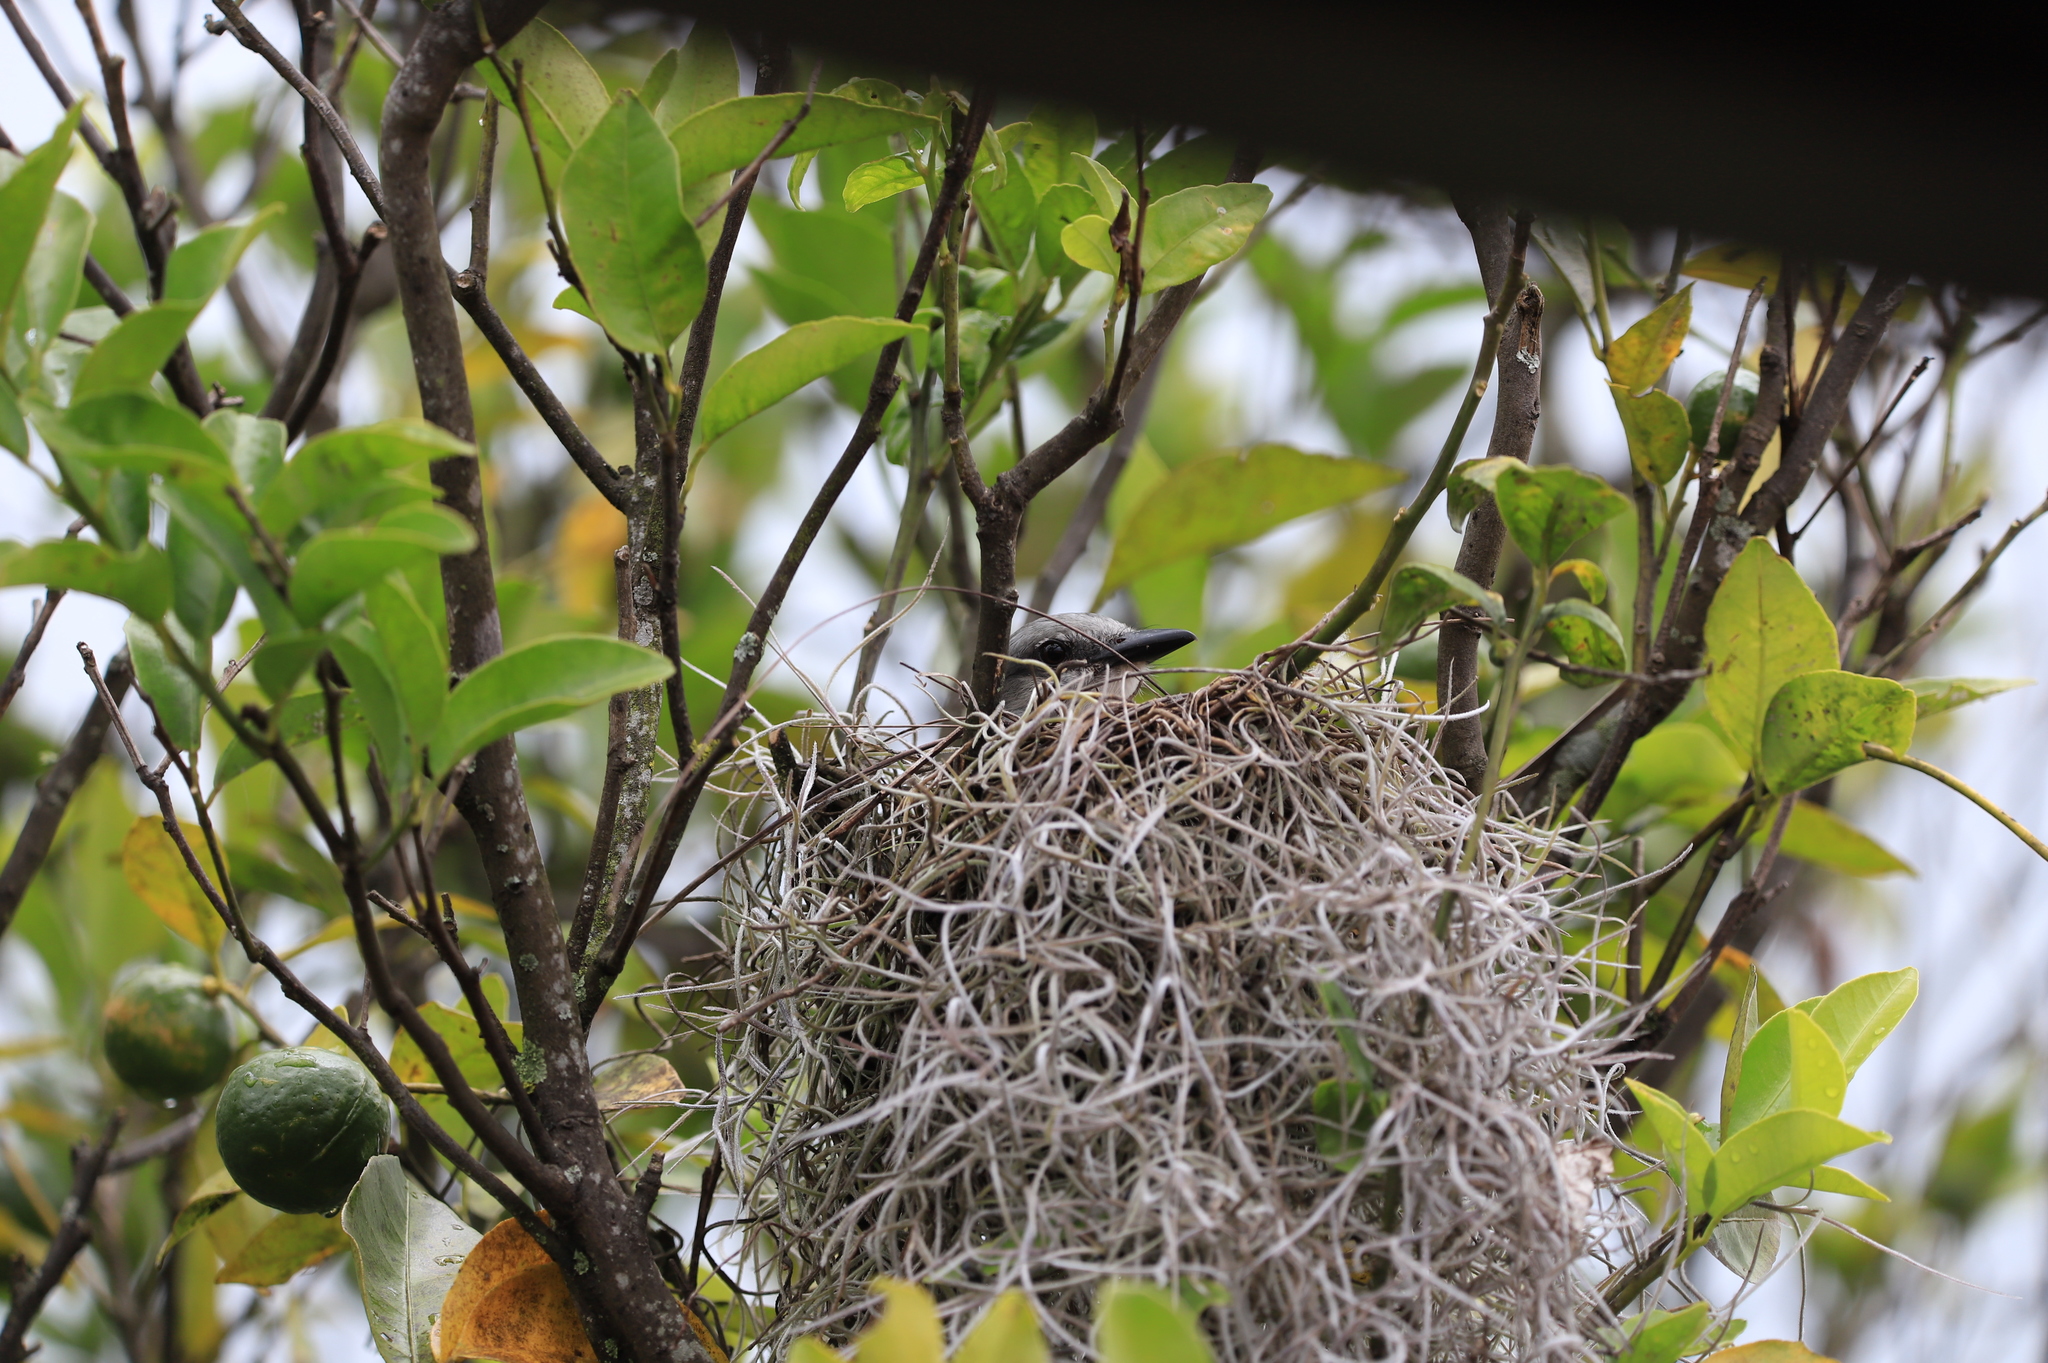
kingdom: Animalia
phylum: Chordata
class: Aves
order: Passeriformes
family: Tyrannidae
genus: Tyrannus
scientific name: Tyrannus melancholicus
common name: Tropical kingbird
